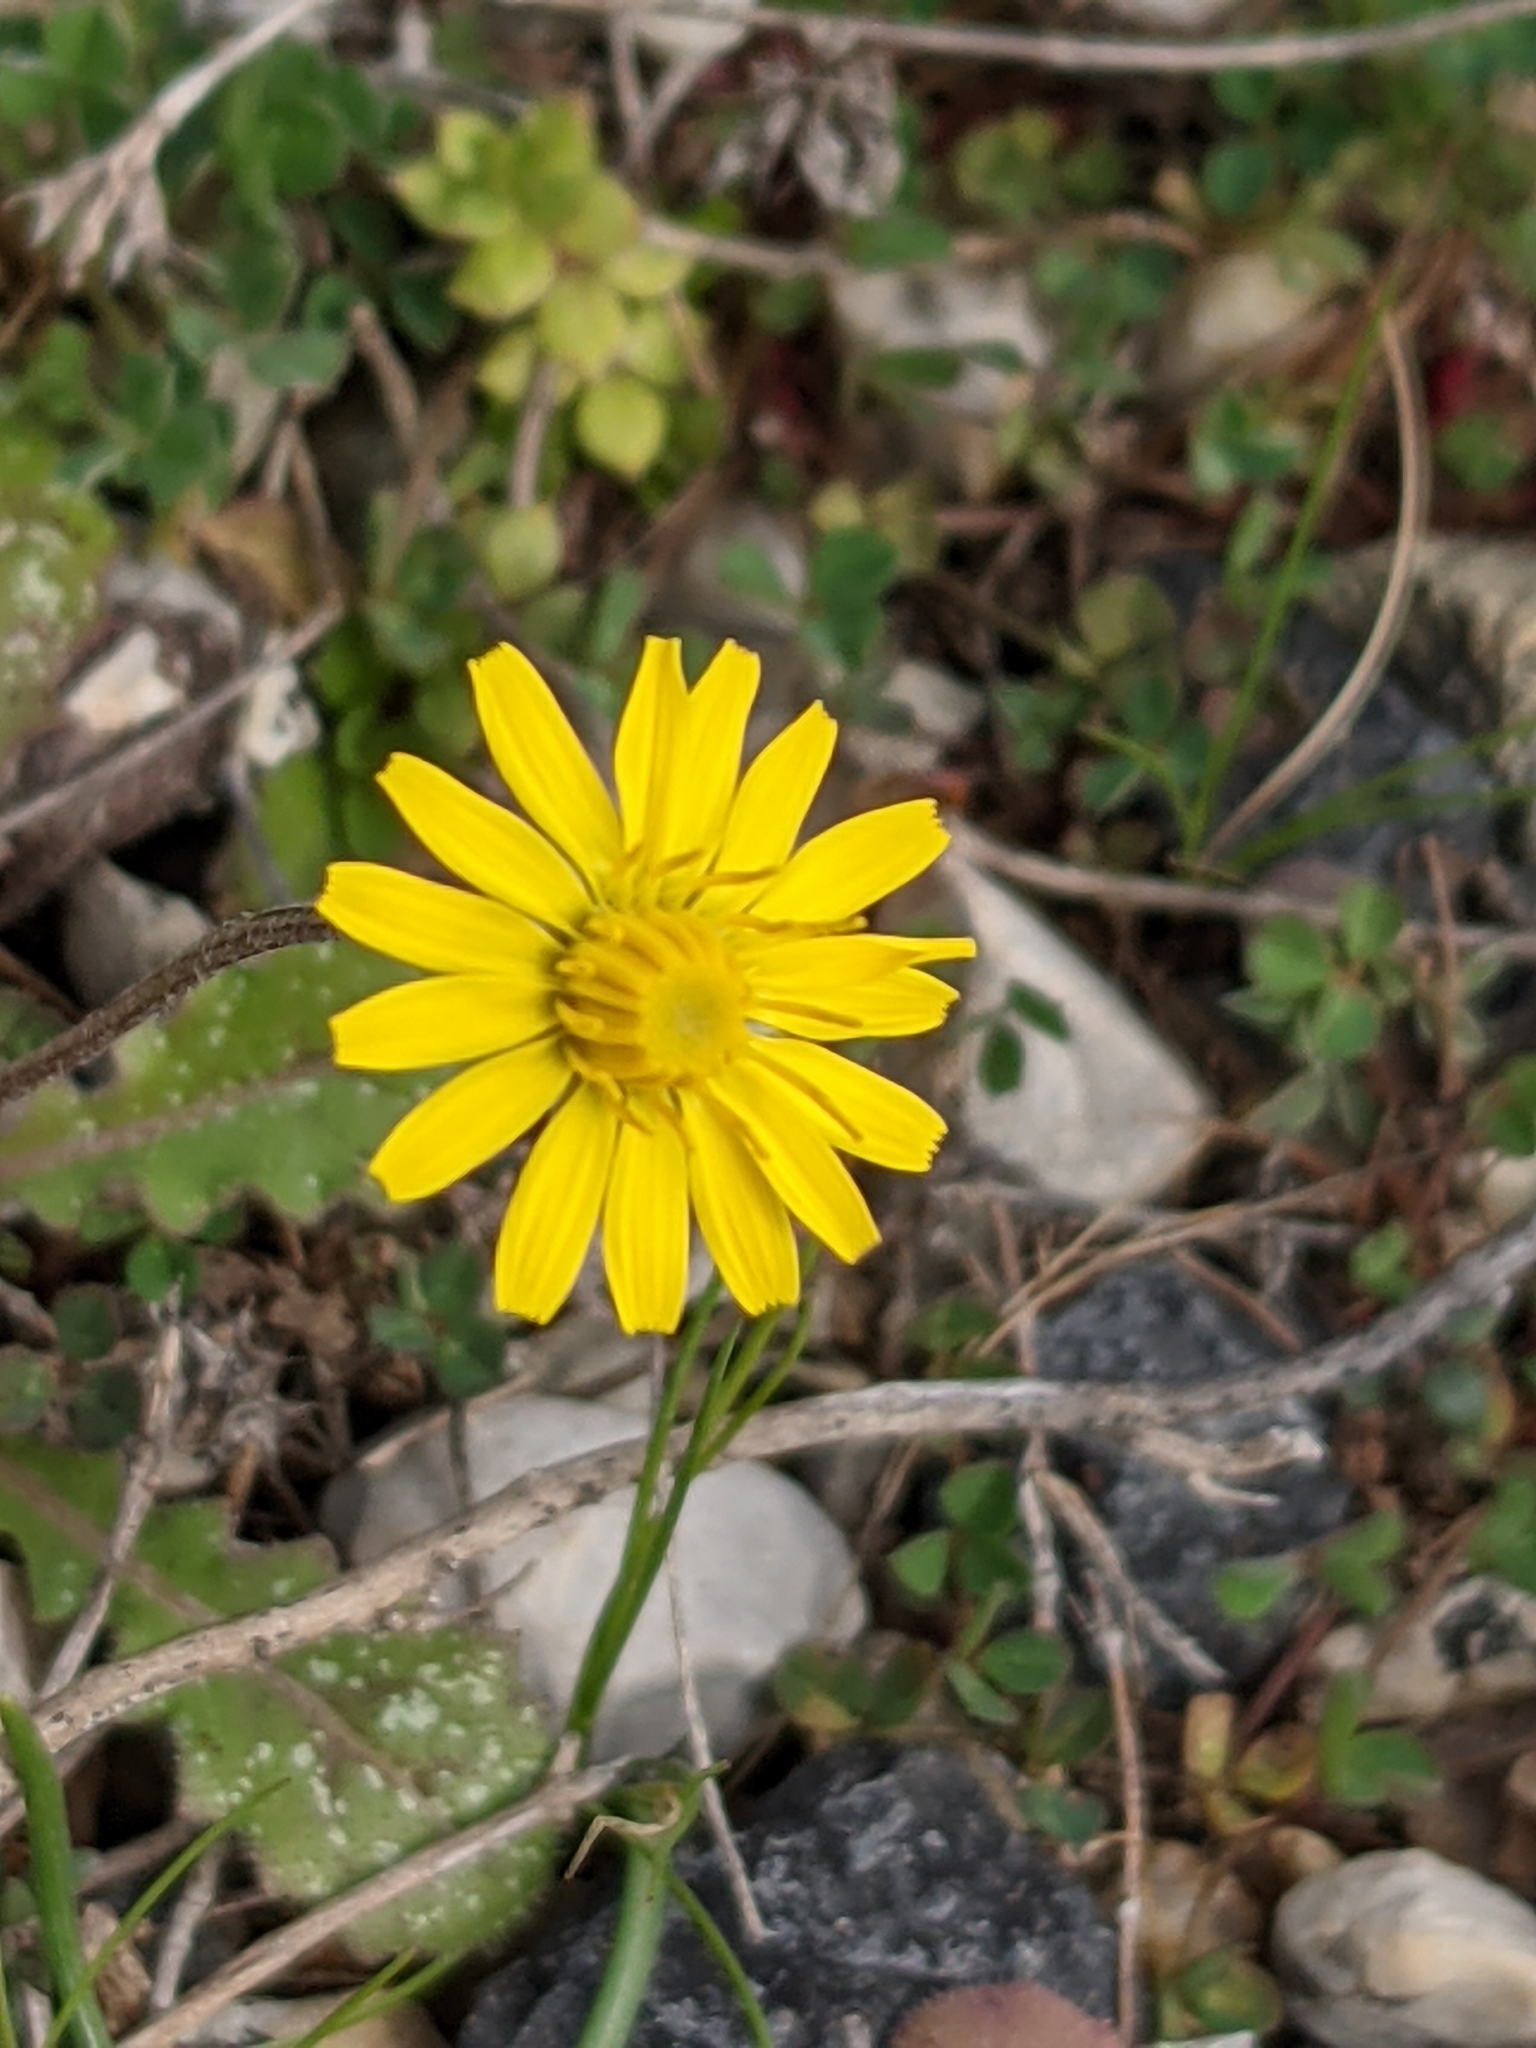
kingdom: Plantae
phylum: Tracheophyta
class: Magnoliopsida
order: Asterales
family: Asteraceae
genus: Crepis
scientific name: Crepis sancta
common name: Hawk's-beard
